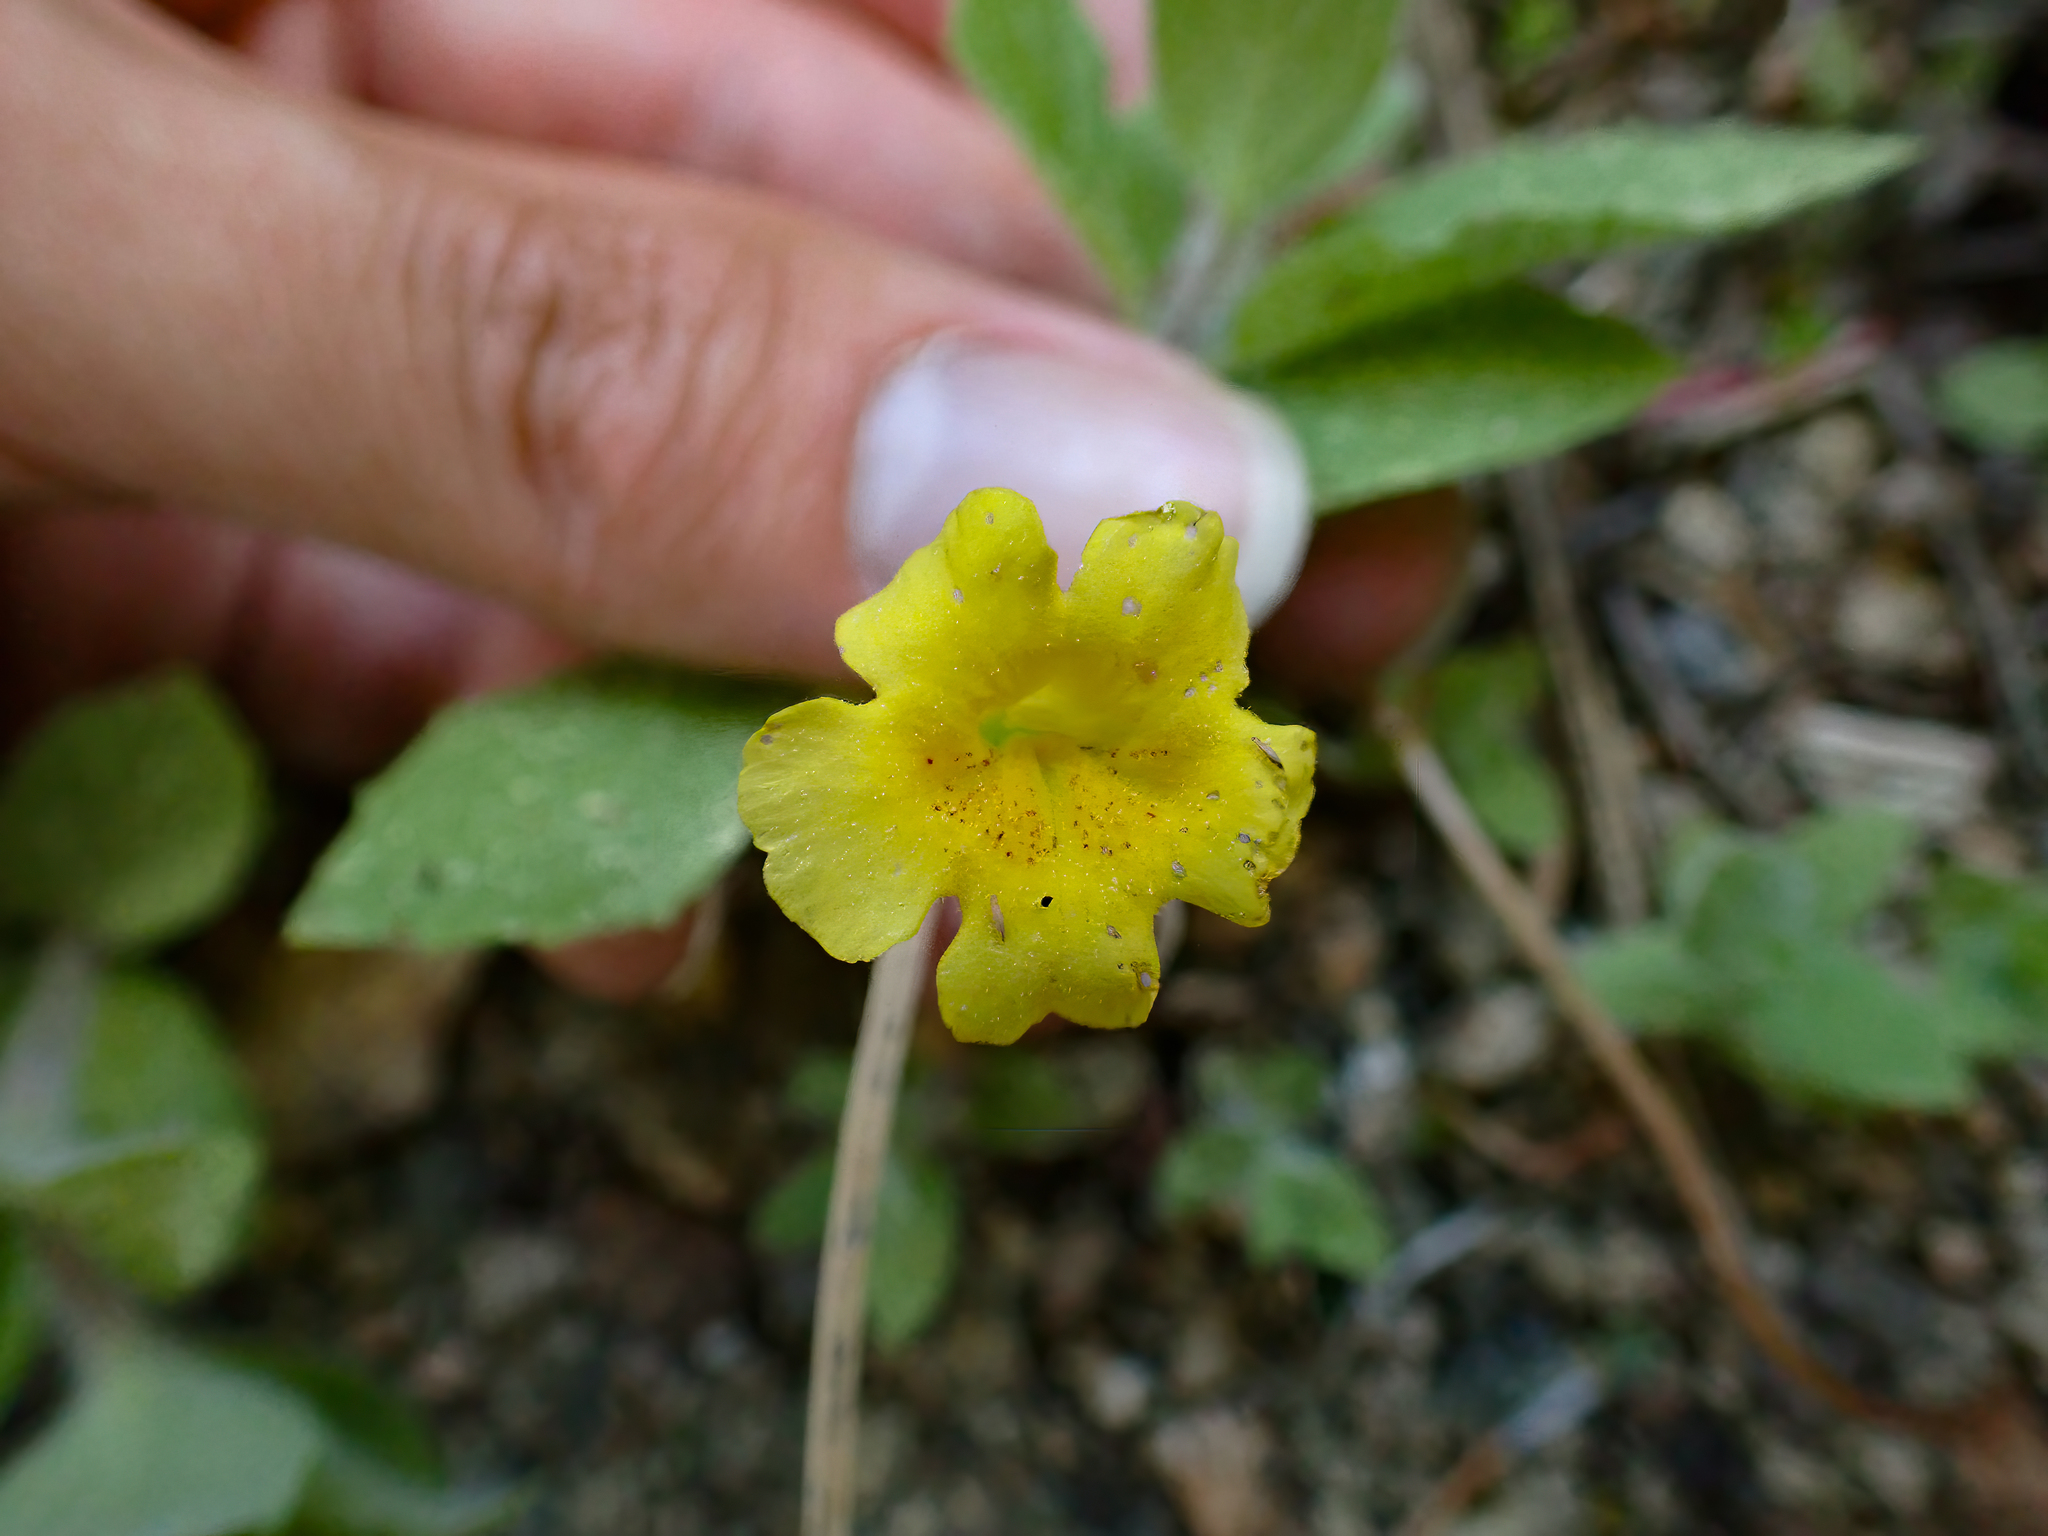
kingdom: Plantae
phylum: Tracheophyta
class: Magnoliopsida
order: Lamiales
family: Phrymaceae
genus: Erythranthe
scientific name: Erythranthe moschata
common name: Muskflower
